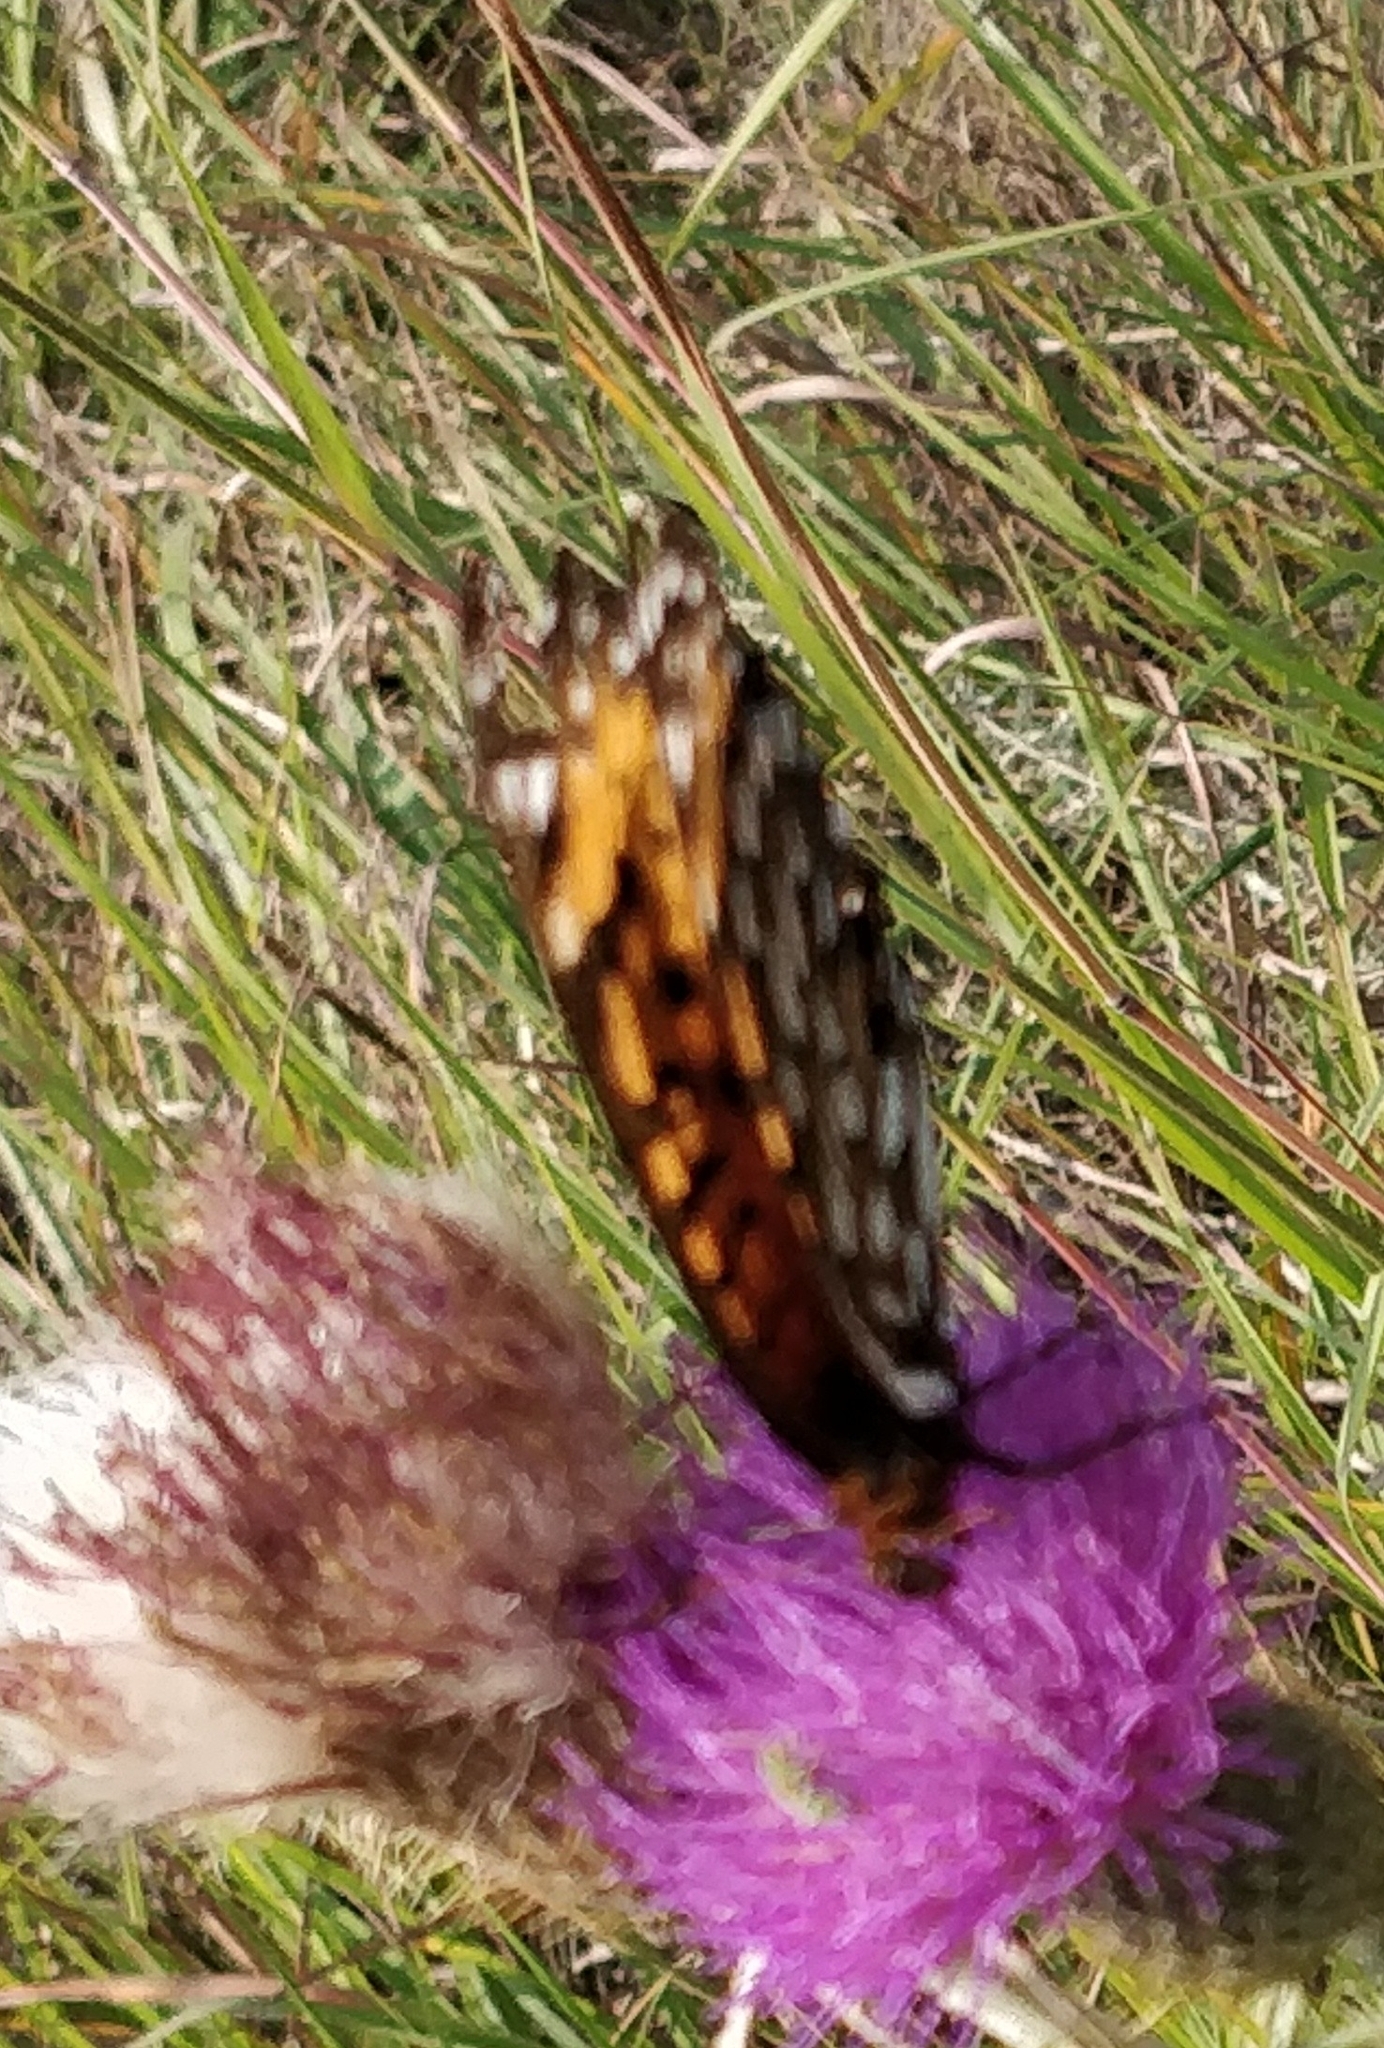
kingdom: Animalia
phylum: Arthropoda
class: Insecta
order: Lepidoptera
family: Nymphalidae
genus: Speyeria
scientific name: Speyeria idalia
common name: Regal fritillary
